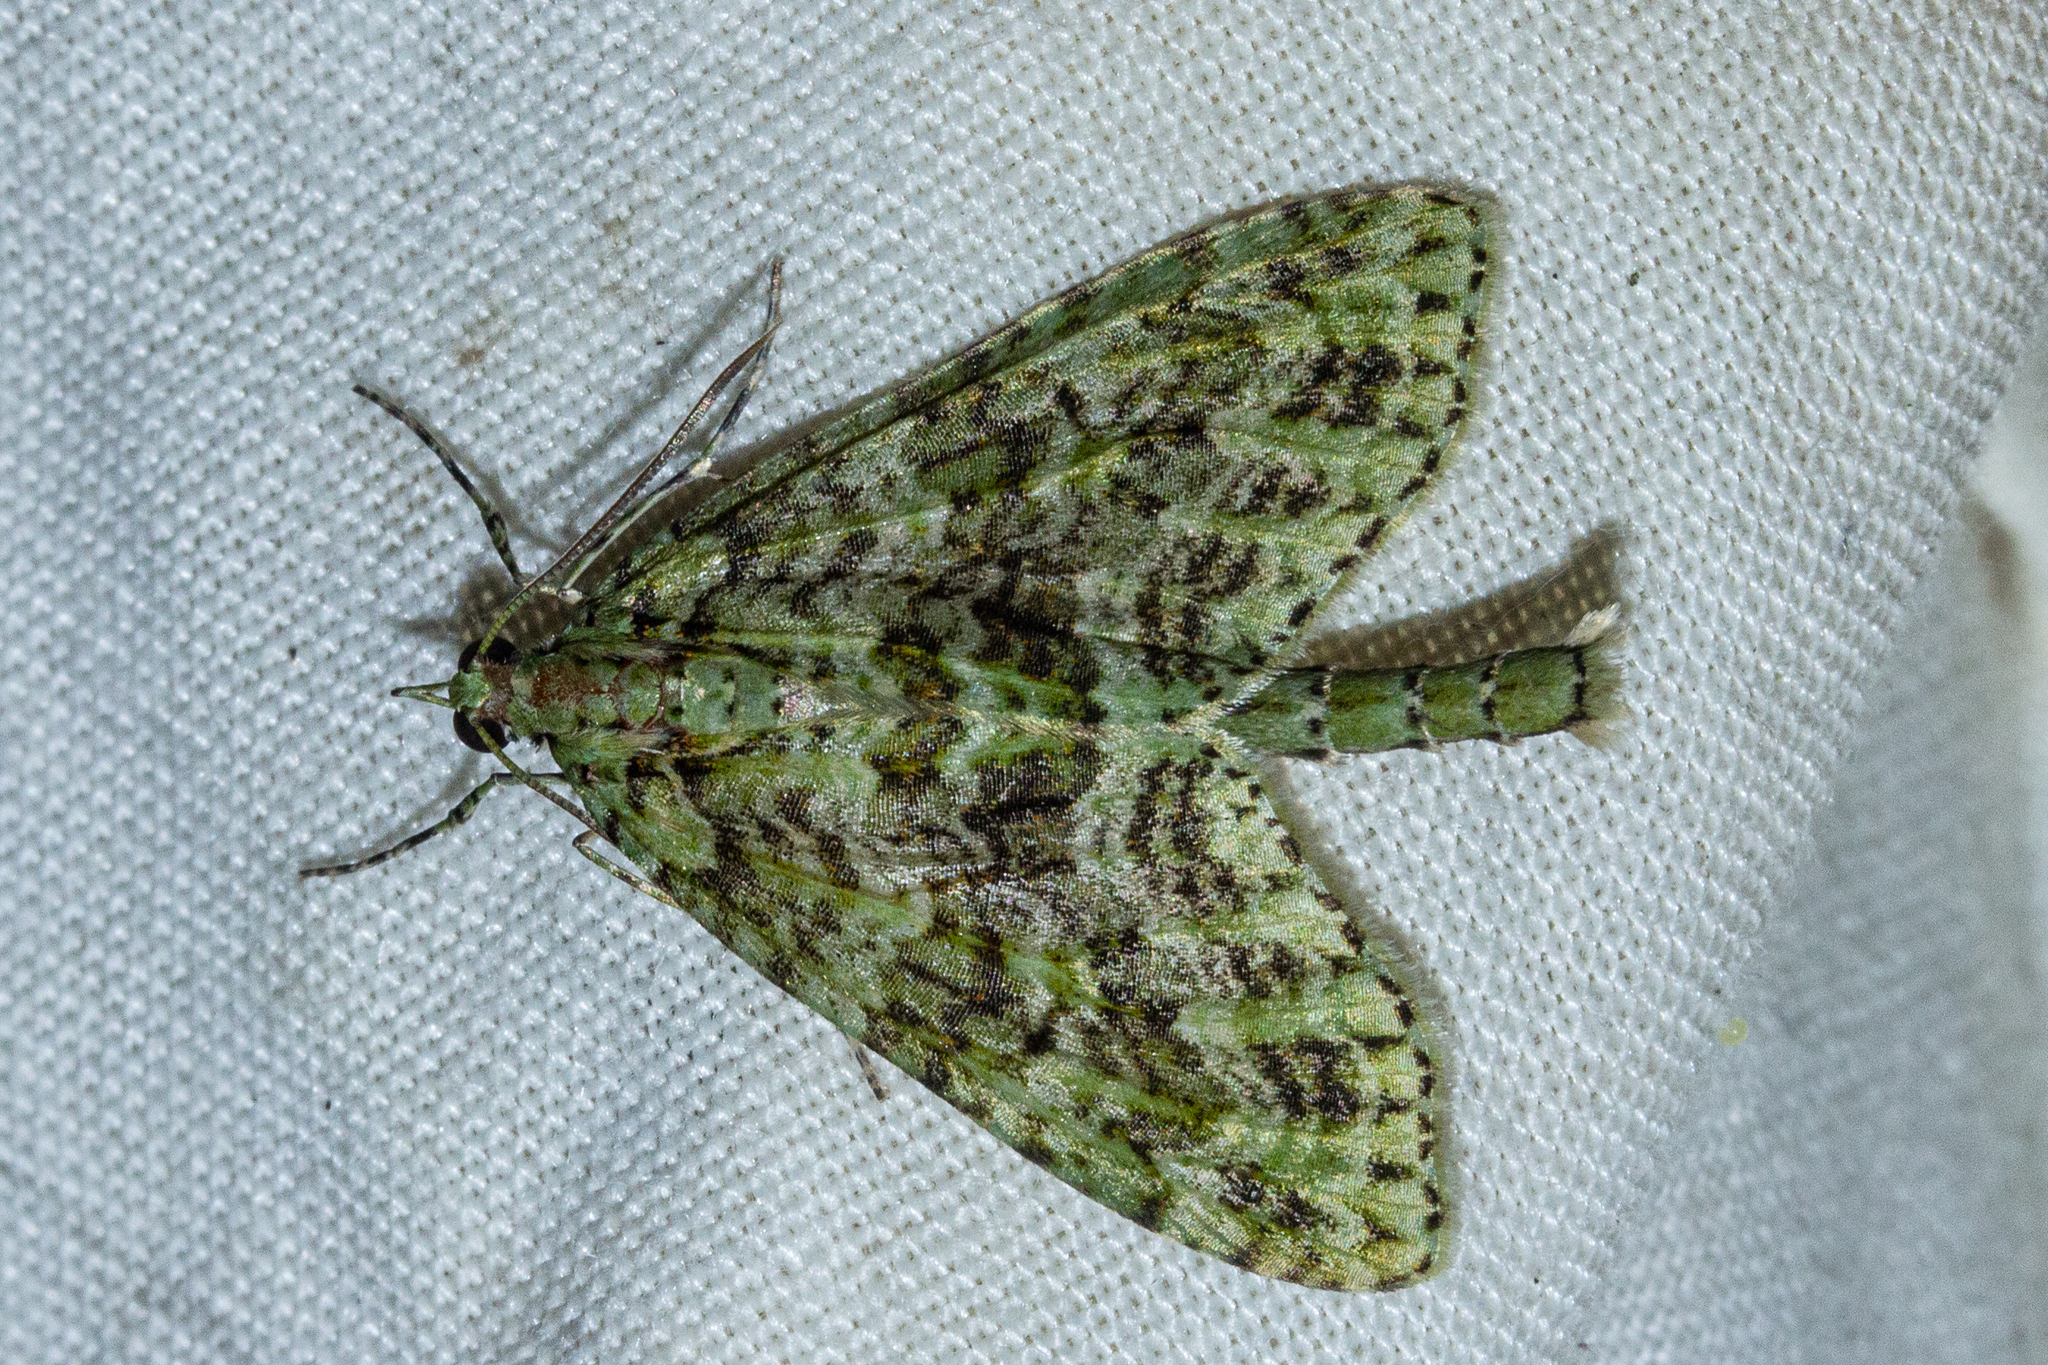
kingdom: Animalia
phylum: Arthropoda
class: Insecta
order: Lepidoptera
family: Geometridae
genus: Tatosoma
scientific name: Tatosoma tipulata
